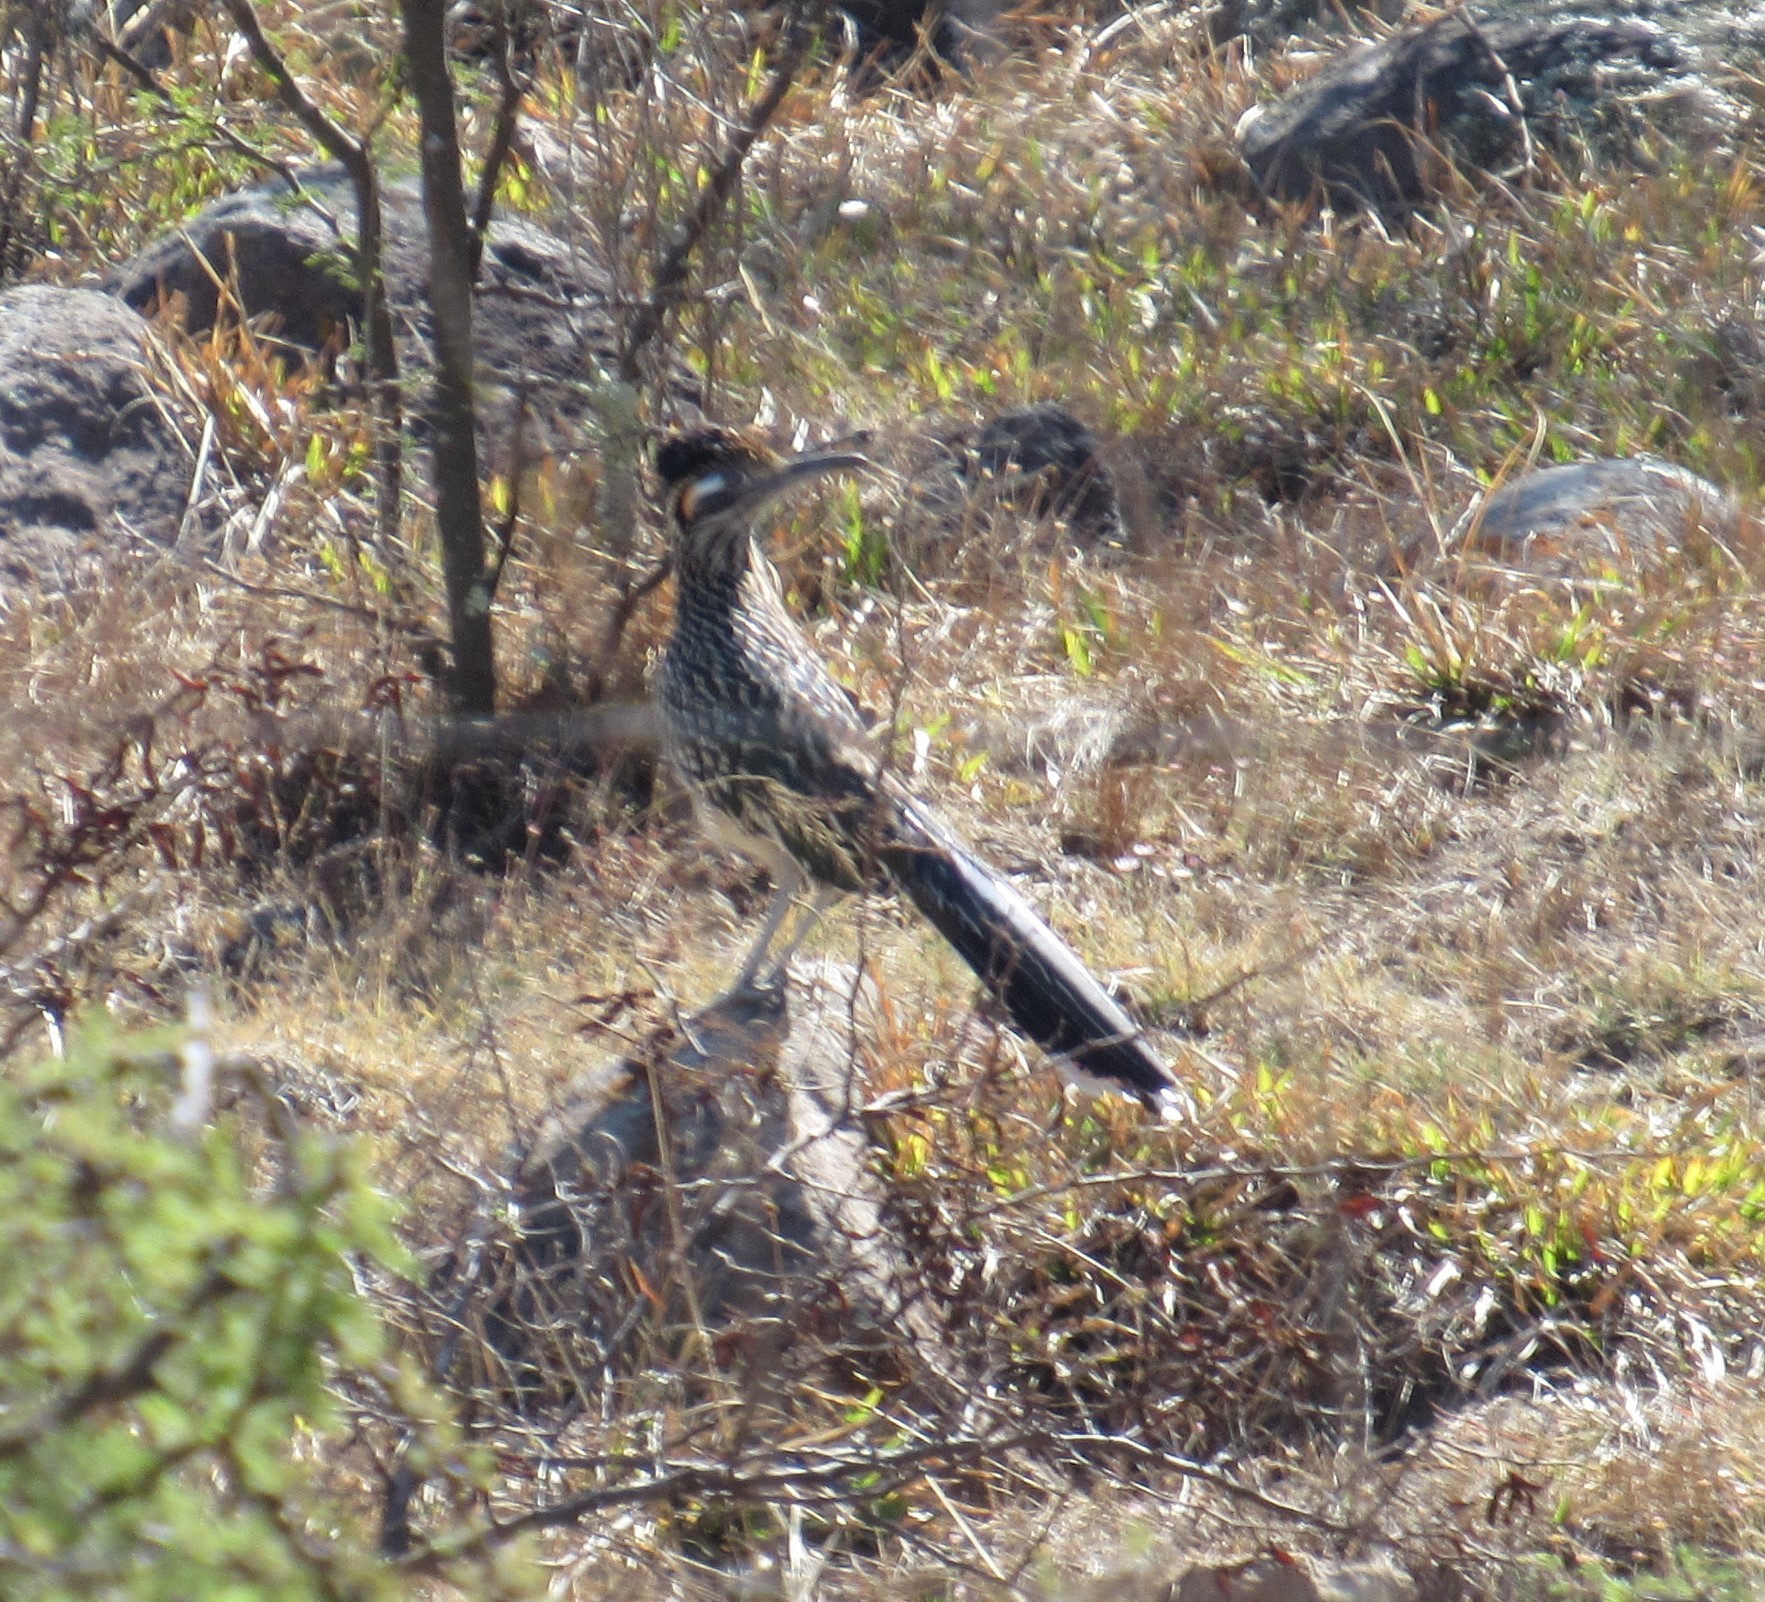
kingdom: Animalia
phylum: Chordata
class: Aves
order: Cuculiformes
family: Cuculidae
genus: Geococcyx
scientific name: Geococcyx californianus
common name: Greater roadrunner
